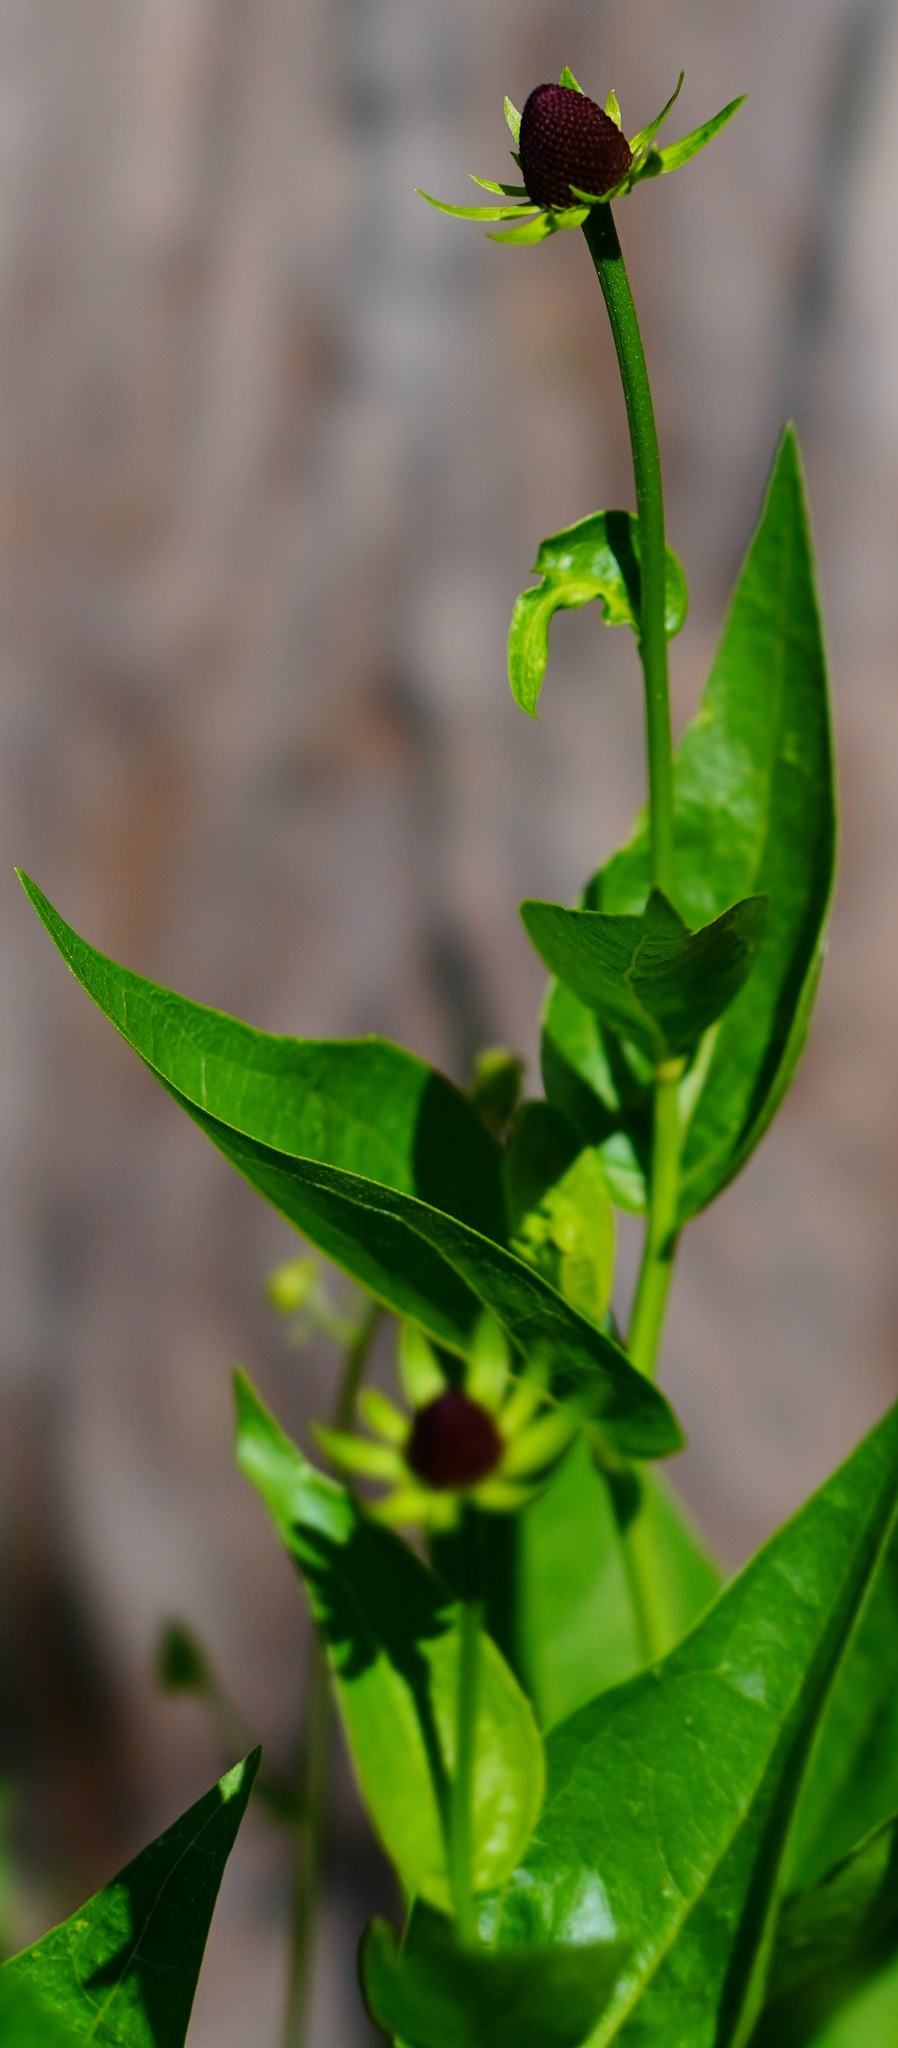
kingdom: Plantae
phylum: Tracheophyta
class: Magnoliopsida
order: Asterales
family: Asteraceae
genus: Rudbeckia
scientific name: Rudbeckia occidentalis
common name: Western coneflower
